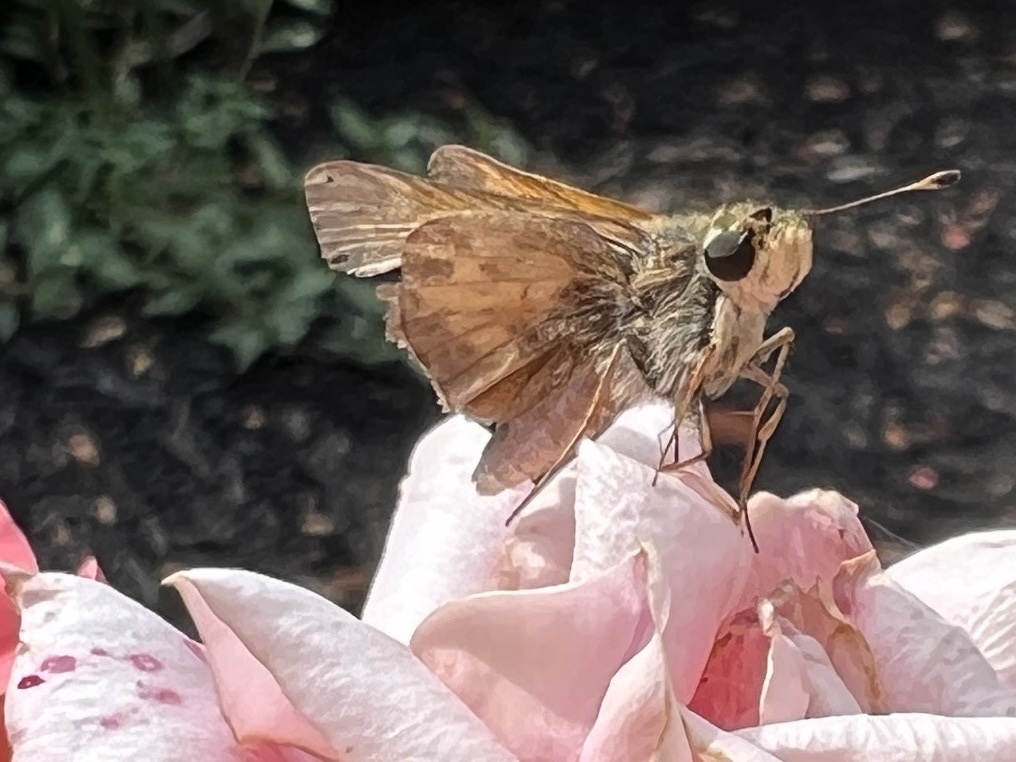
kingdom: Animalia
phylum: Arthropoda
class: Insecta
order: Lepidoptera
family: Hesperiidae
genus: Atalopedes
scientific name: Atalopedes
